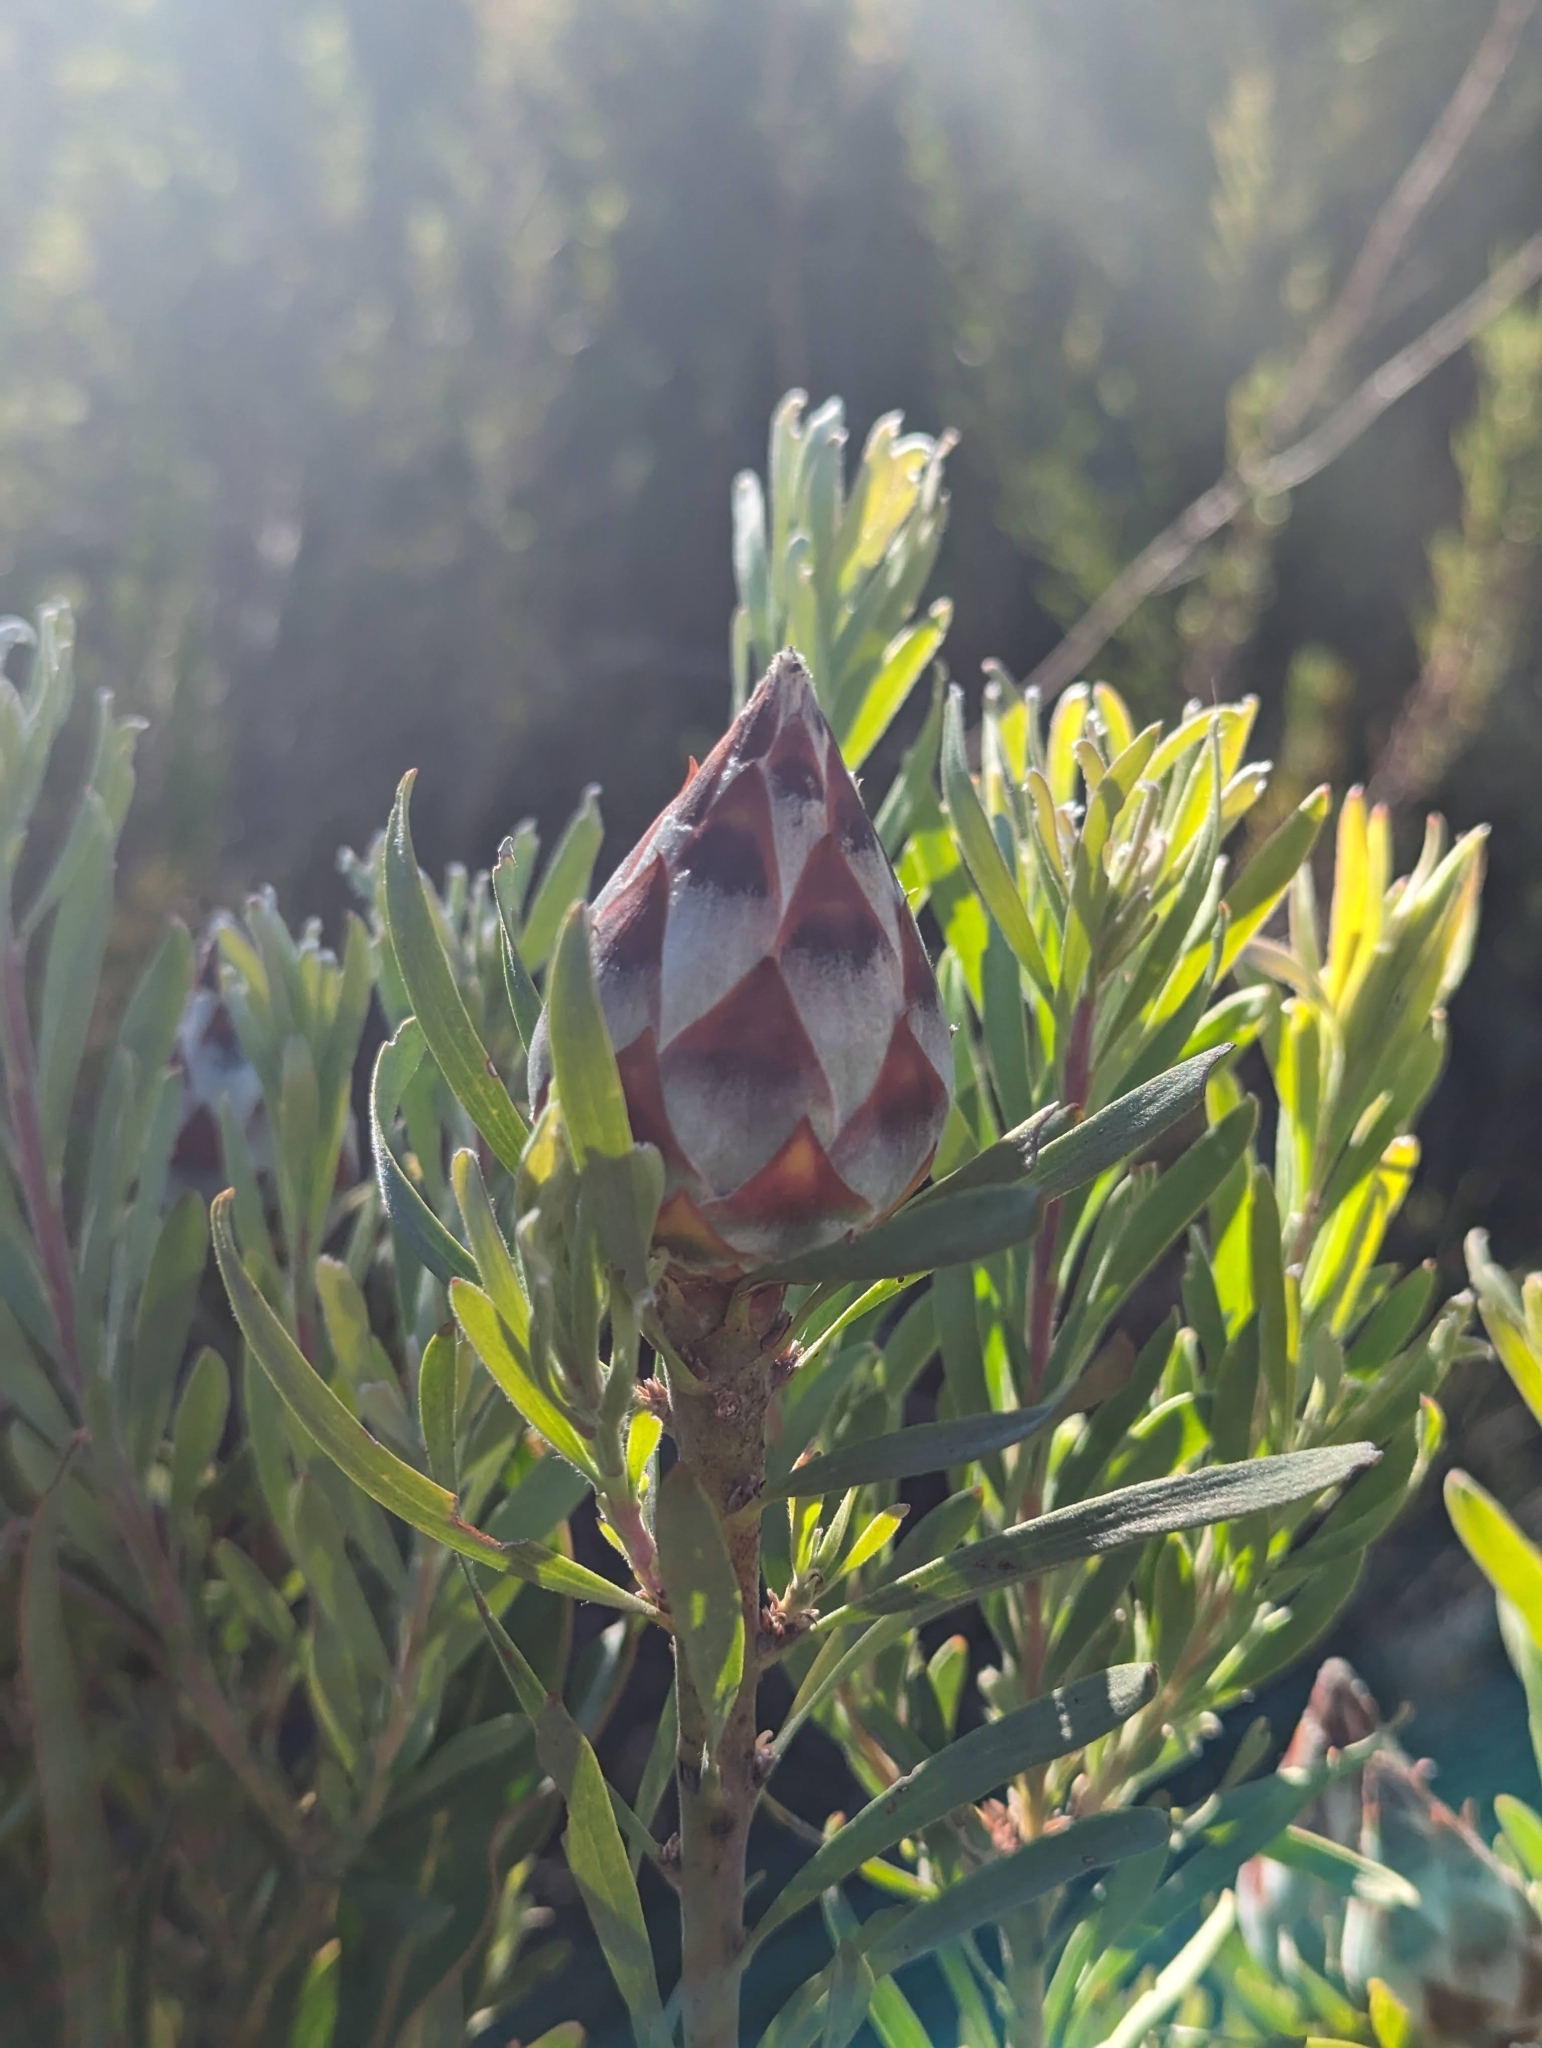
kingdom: Plantae
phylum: Tracheophyta
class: Magnoliopsida
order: Proteales
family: Proteaceae
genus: Leucadendron
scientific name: Leucadendron rubrum
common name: Spinning top
